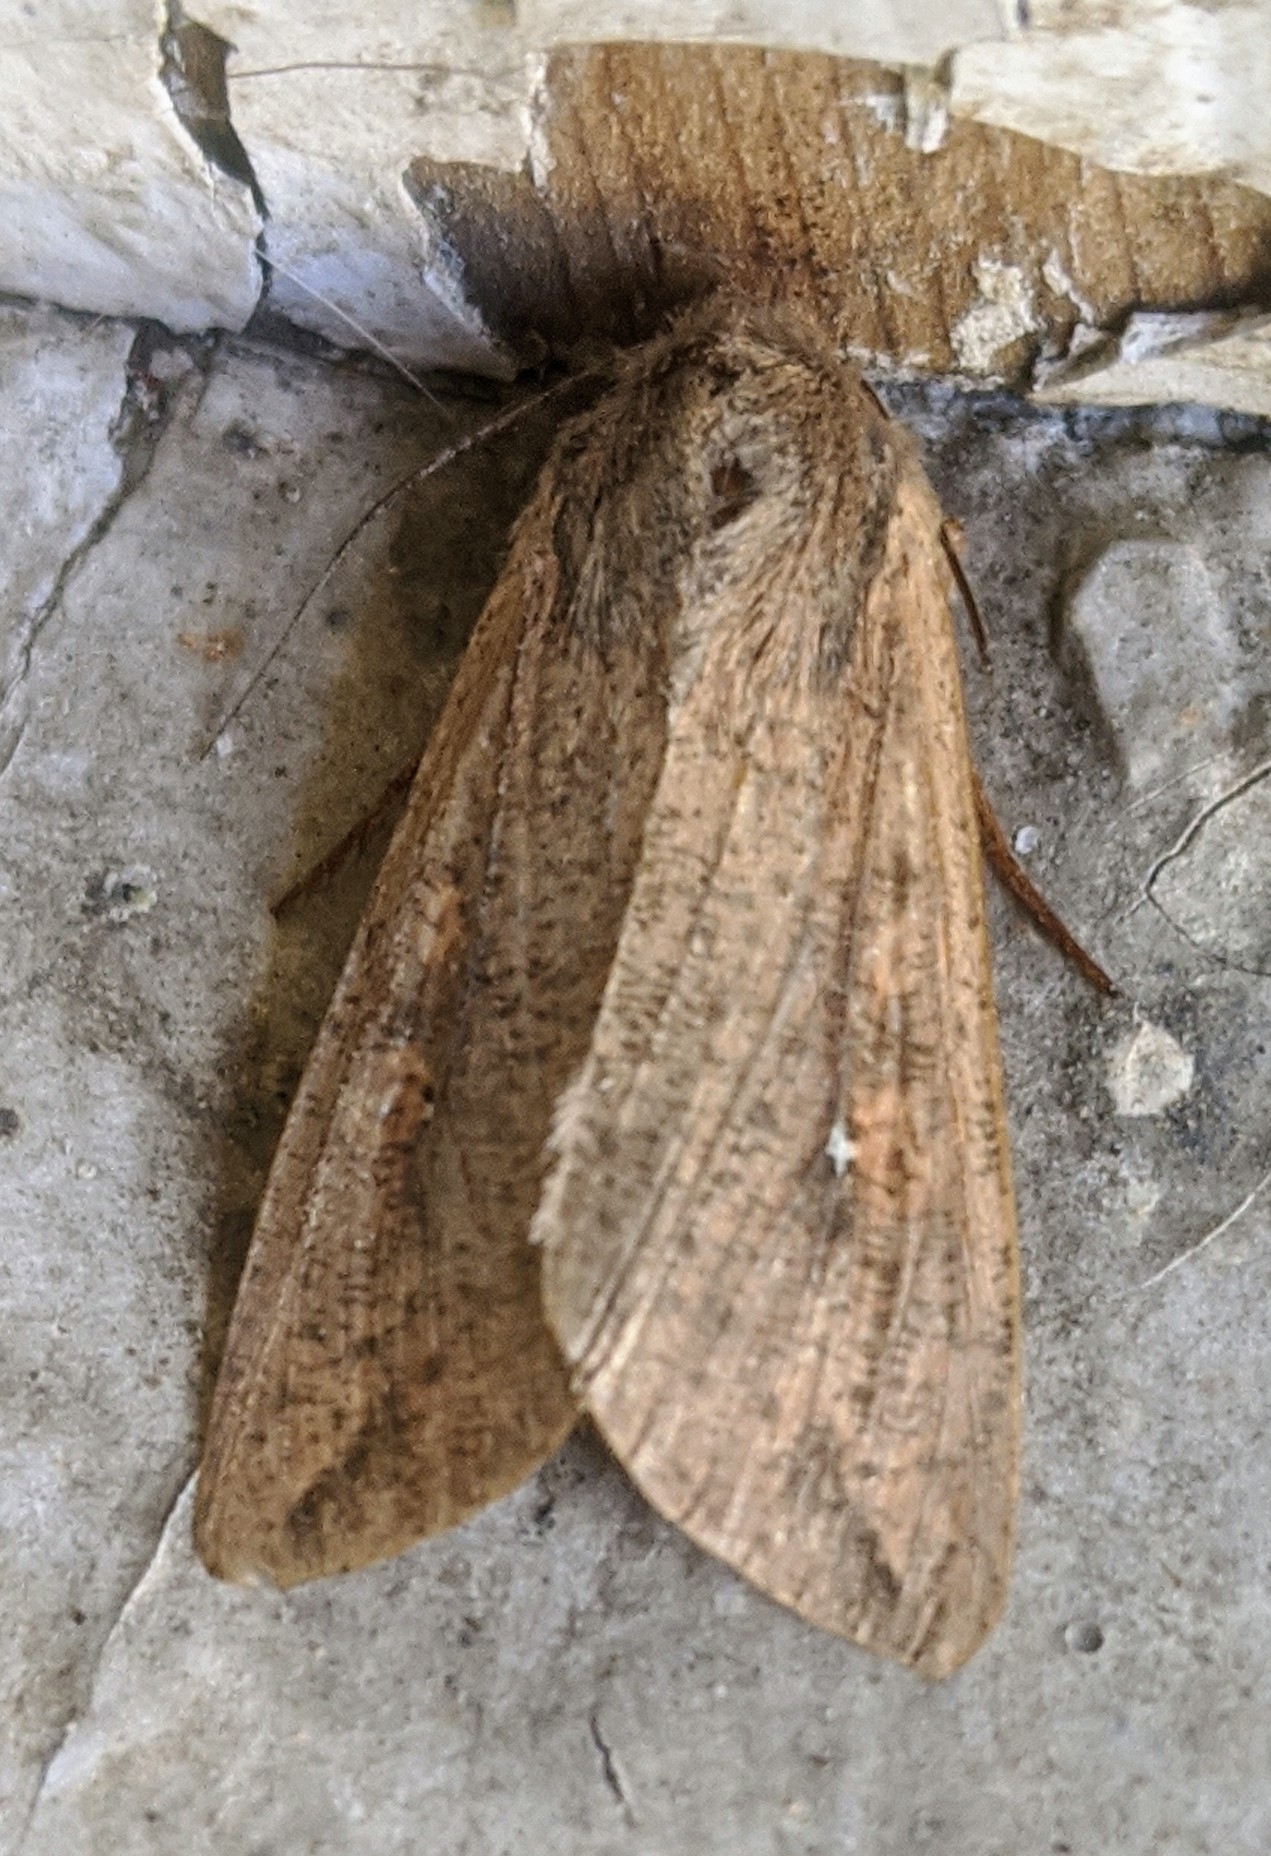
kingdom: Animalia
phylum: Arthropoda
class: Insecta
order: Lepidoptera
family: Noctuidae
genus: Mythimna
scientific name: Mythimna unipuncta
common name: White-speck
